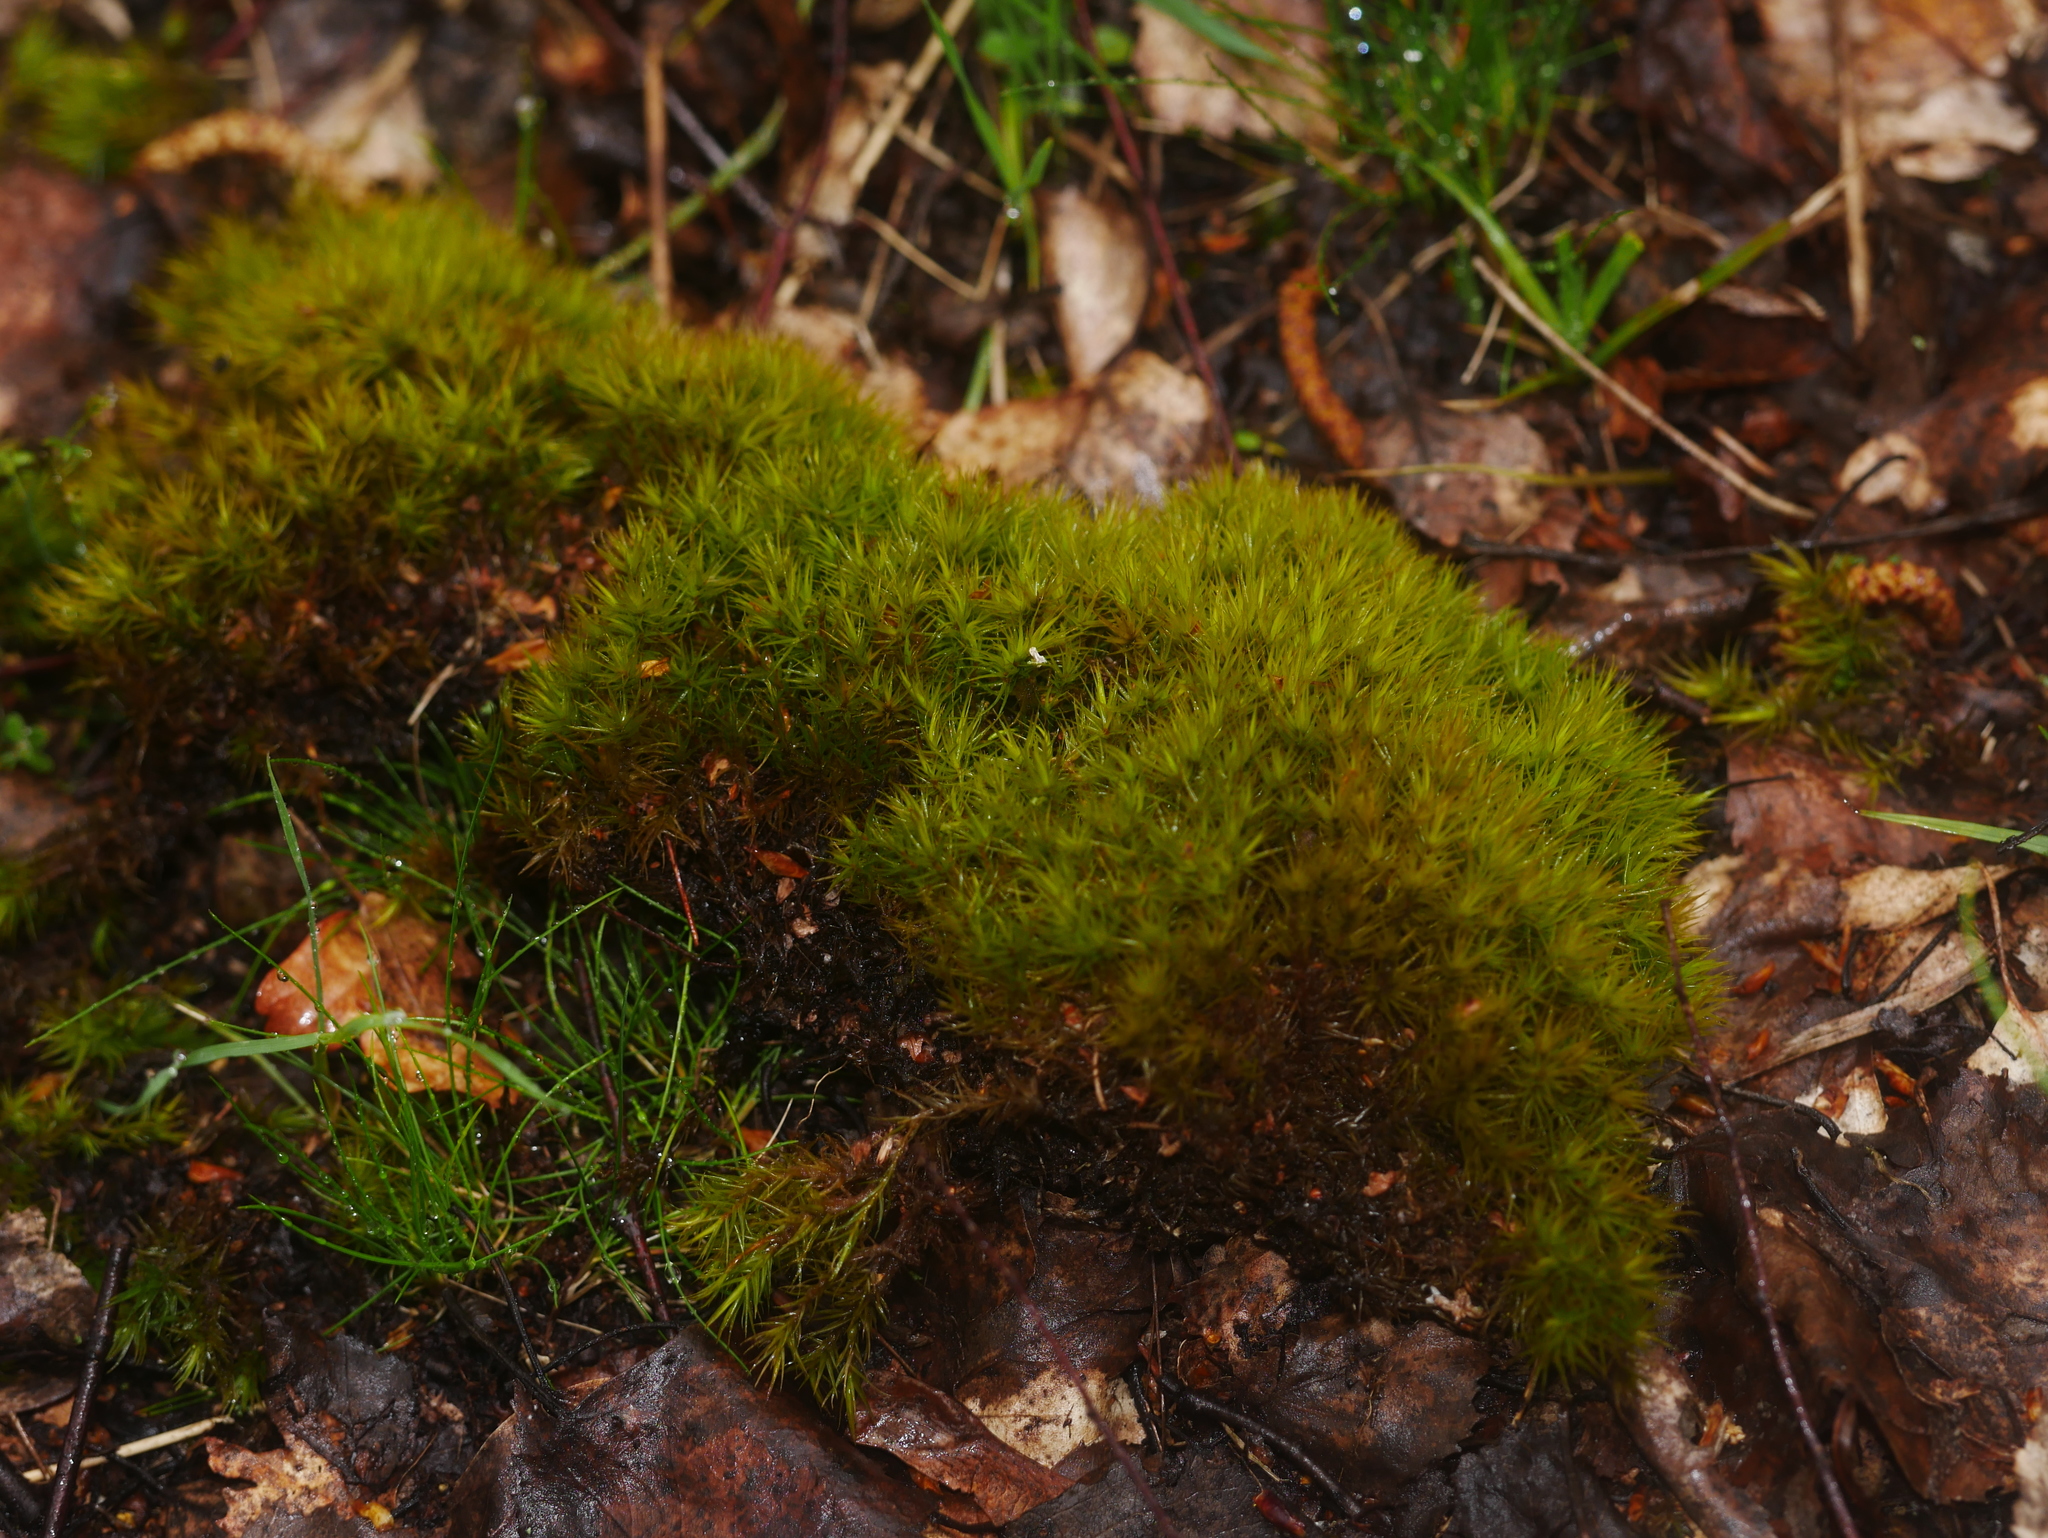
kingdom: Plantae
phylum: Bryophyta
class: Bryopsida
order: Dicranales
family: Dicranaceae
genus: Dicranum
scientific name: Dicranum scoparium
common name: Broom fork-moss
